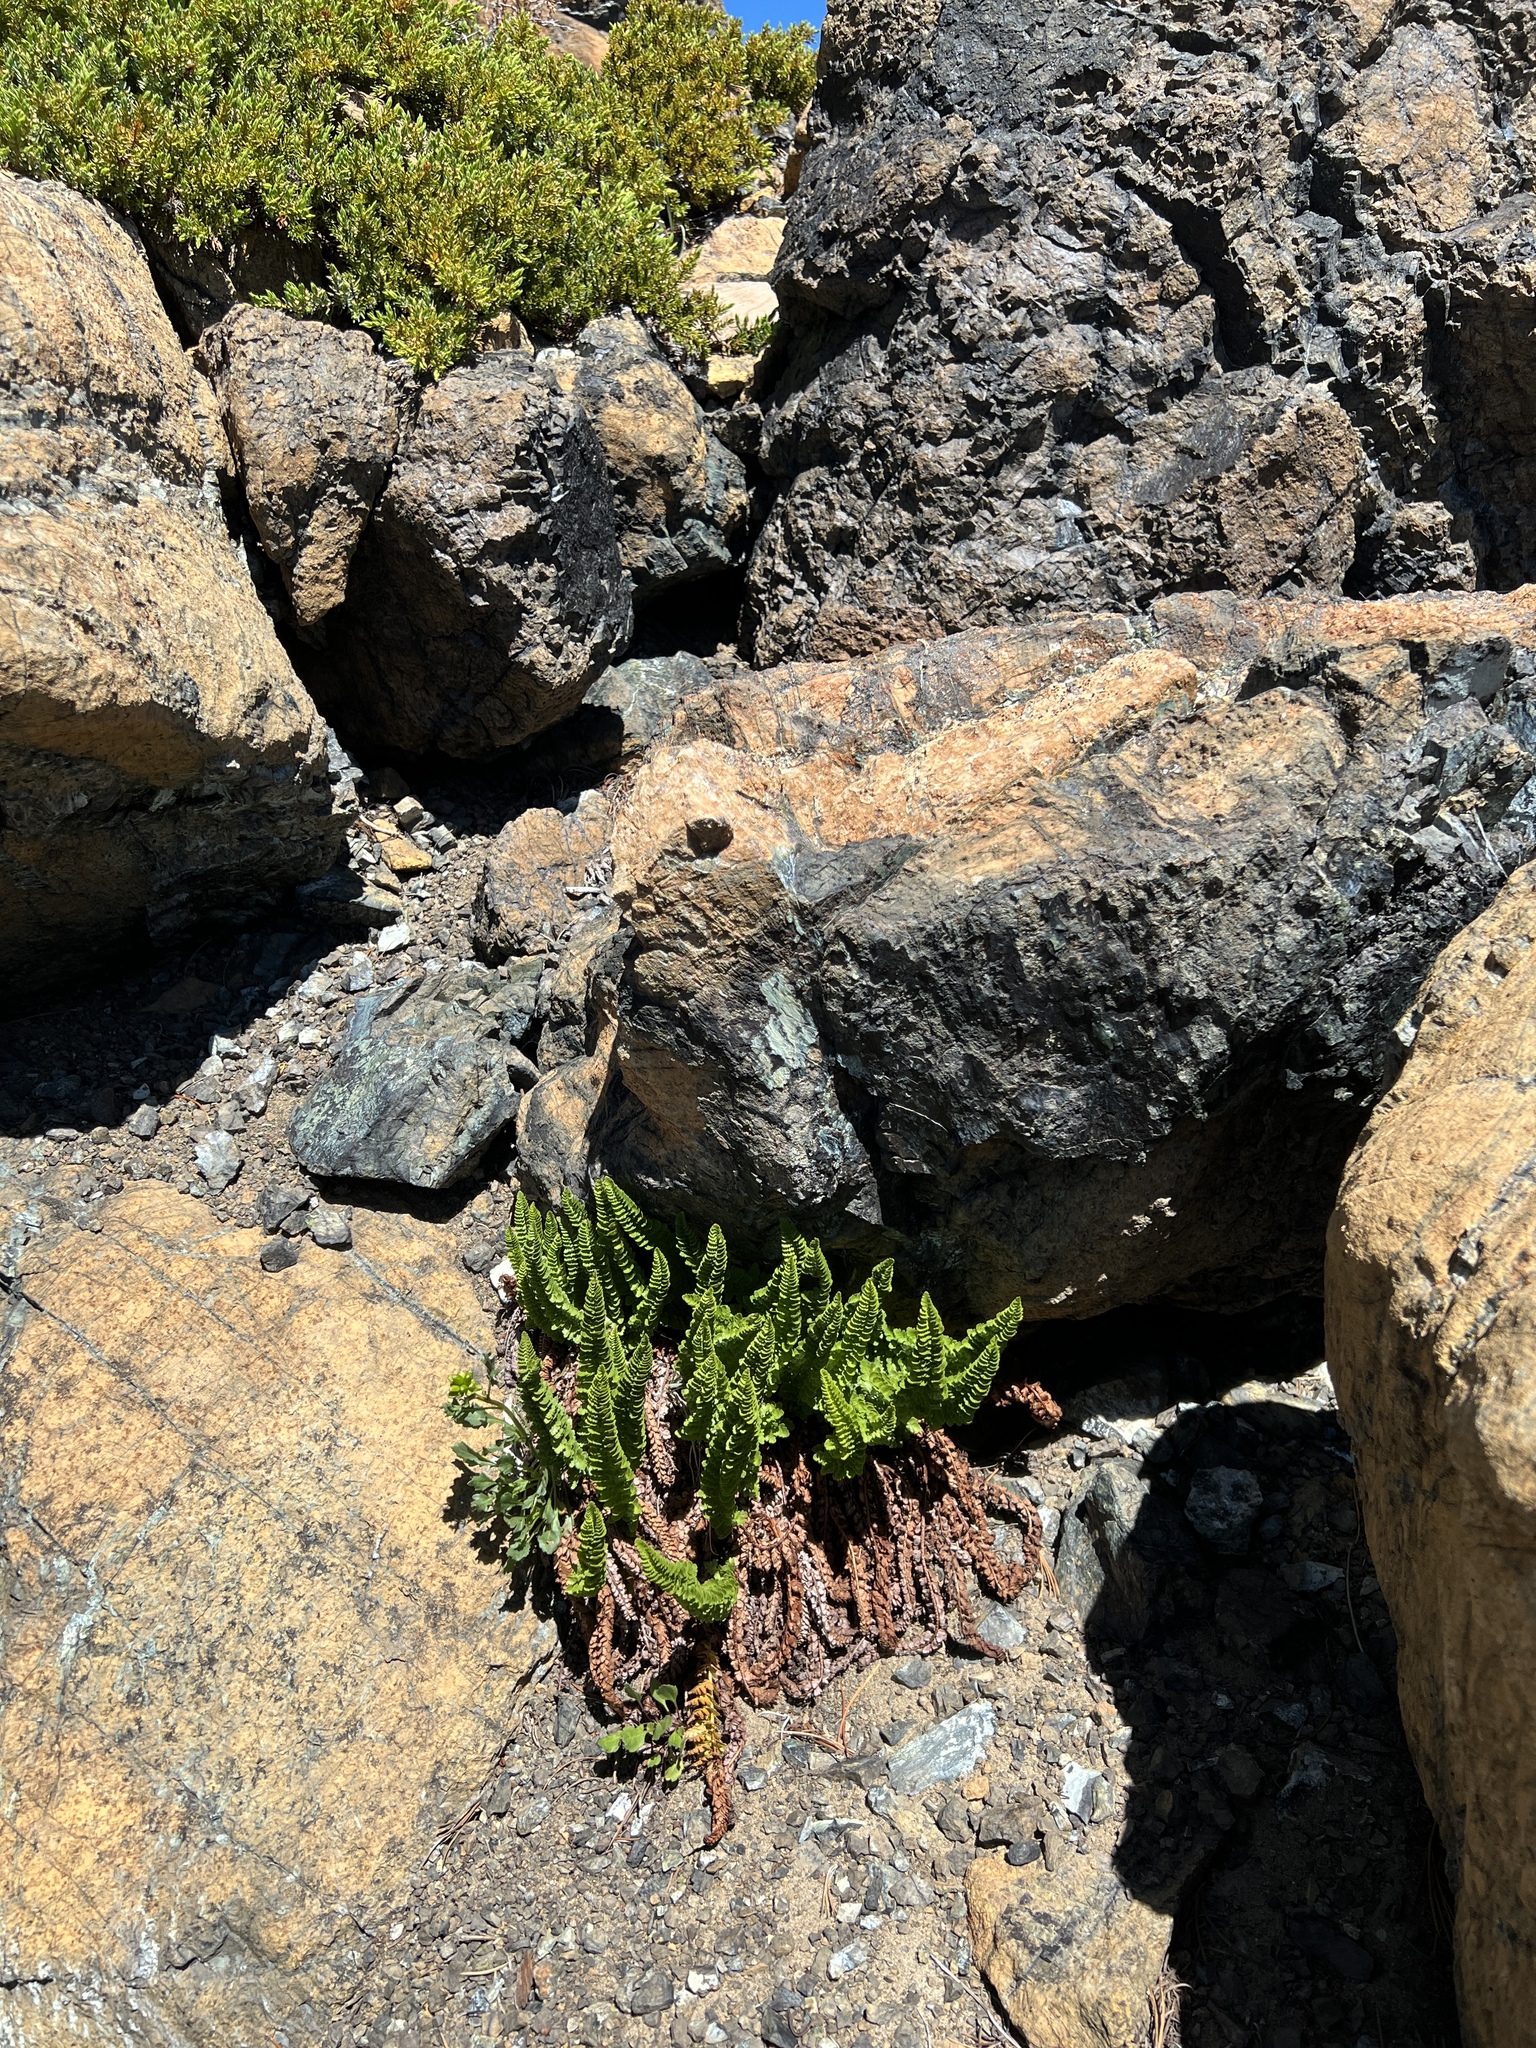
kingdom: Plantae
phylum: Tracheophyta
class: Polypodiopsida
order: Polypodiales
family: Dryopteridaceae
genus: Polystichum
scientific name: Polystichum lemmonii
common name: Lemmon's holly fern
